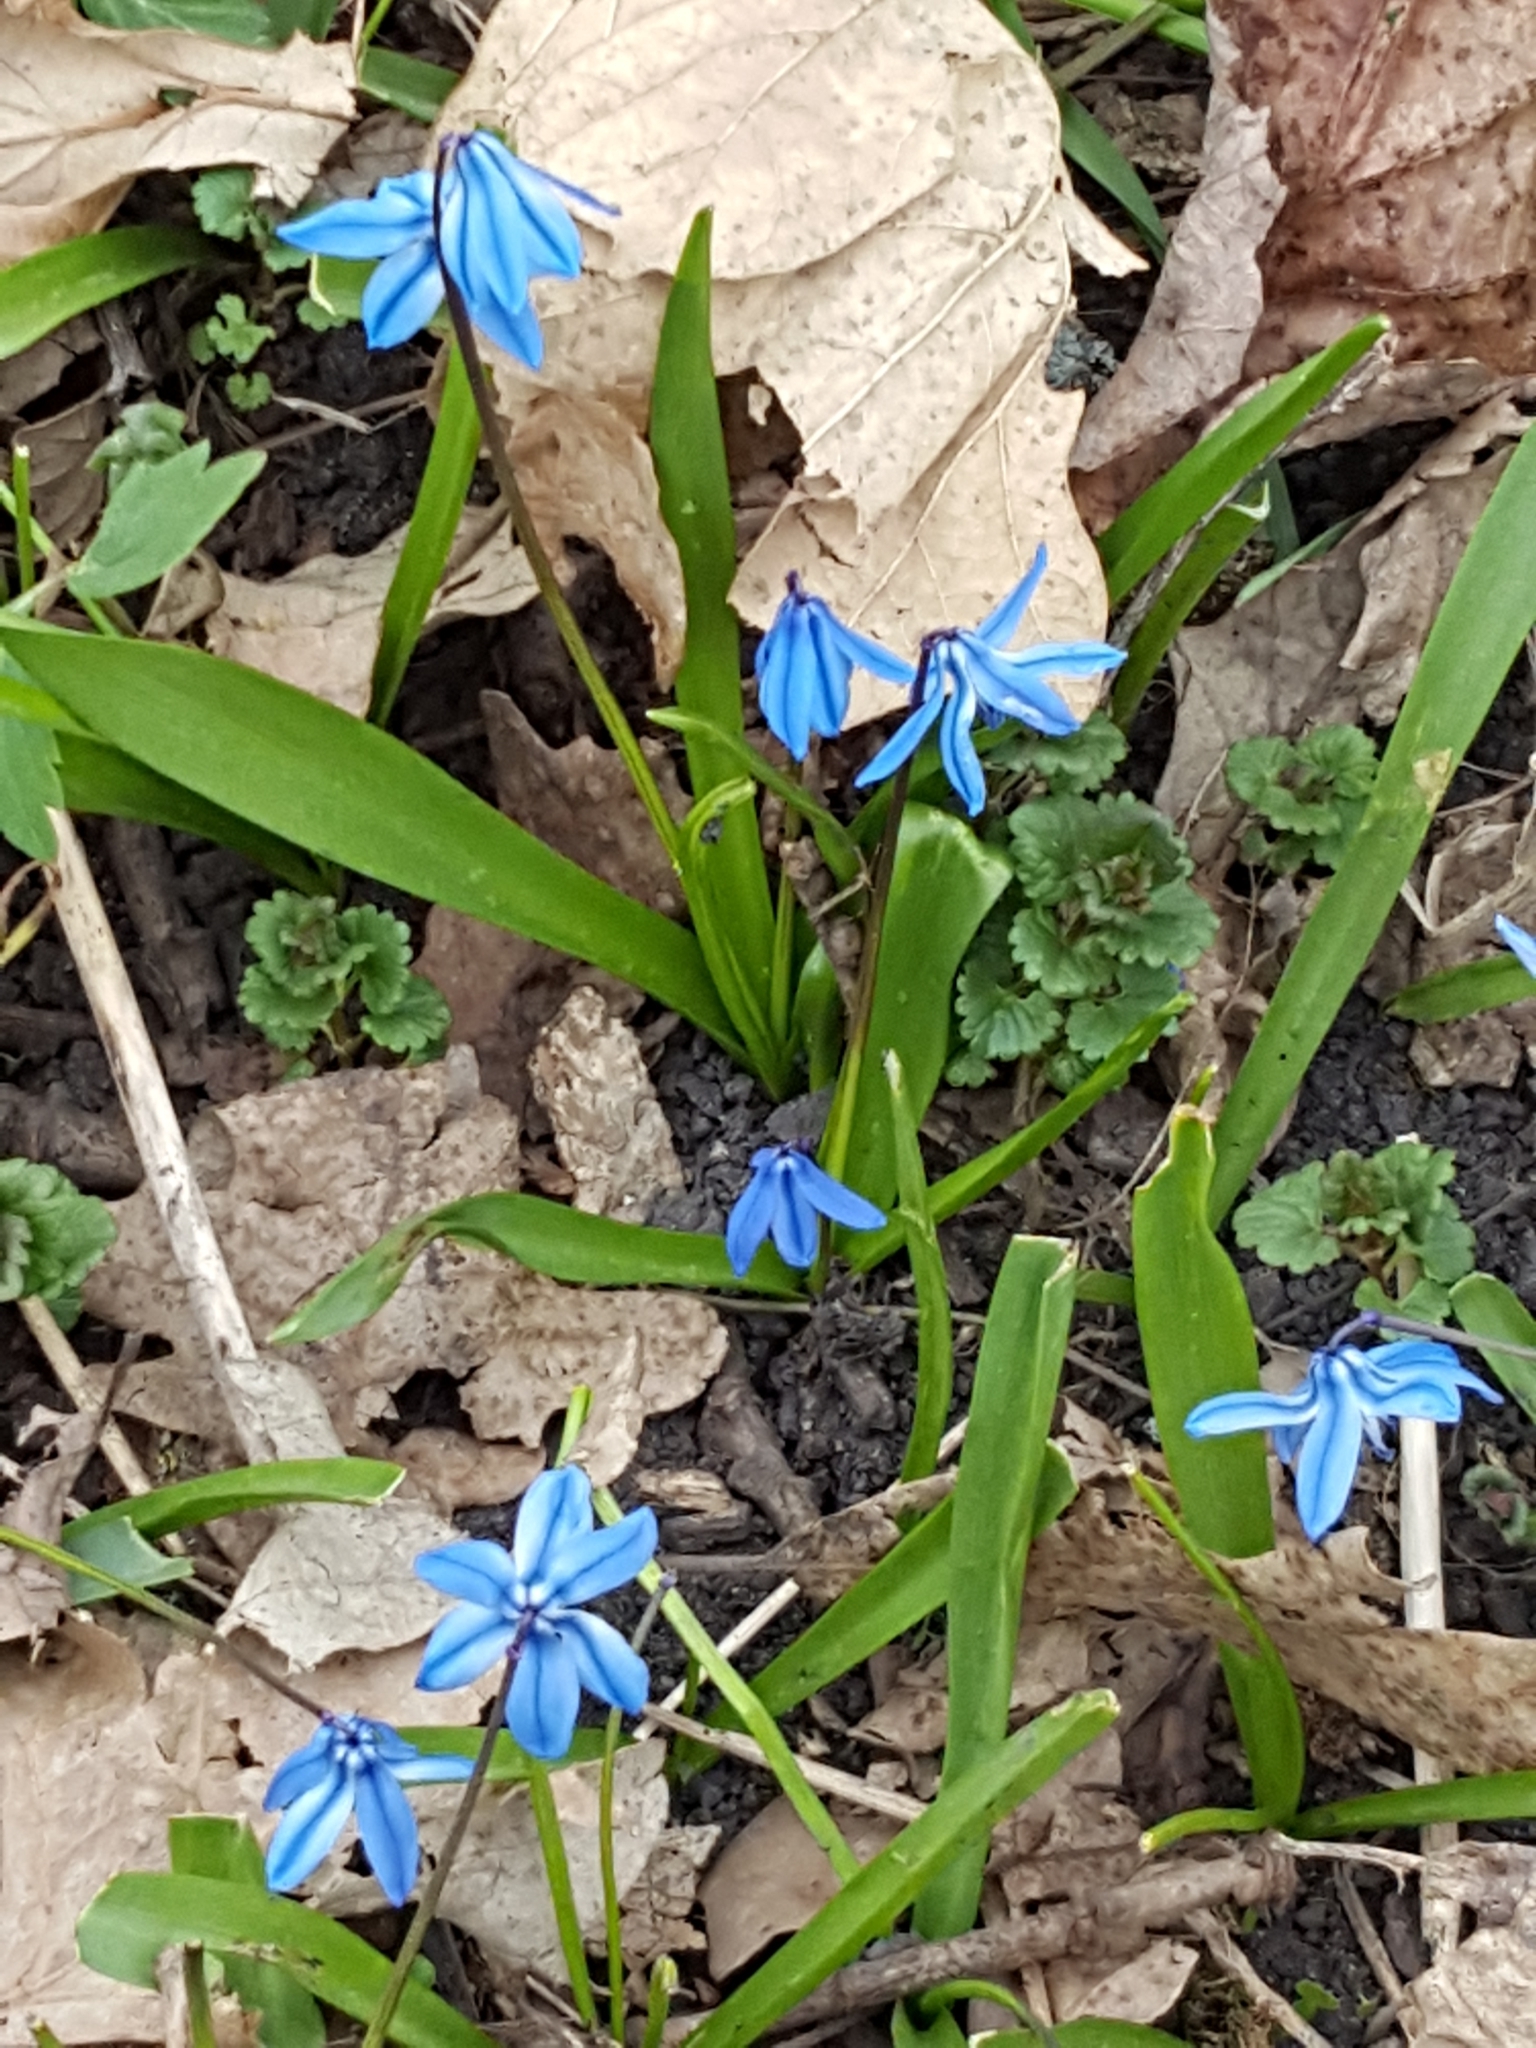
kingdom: Plantae
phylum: Tracheophyta
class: Liliopsida
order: Asparagales
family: Asparagaceae
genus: Scilla
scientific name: Scilla siberica
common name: Siberian squill
